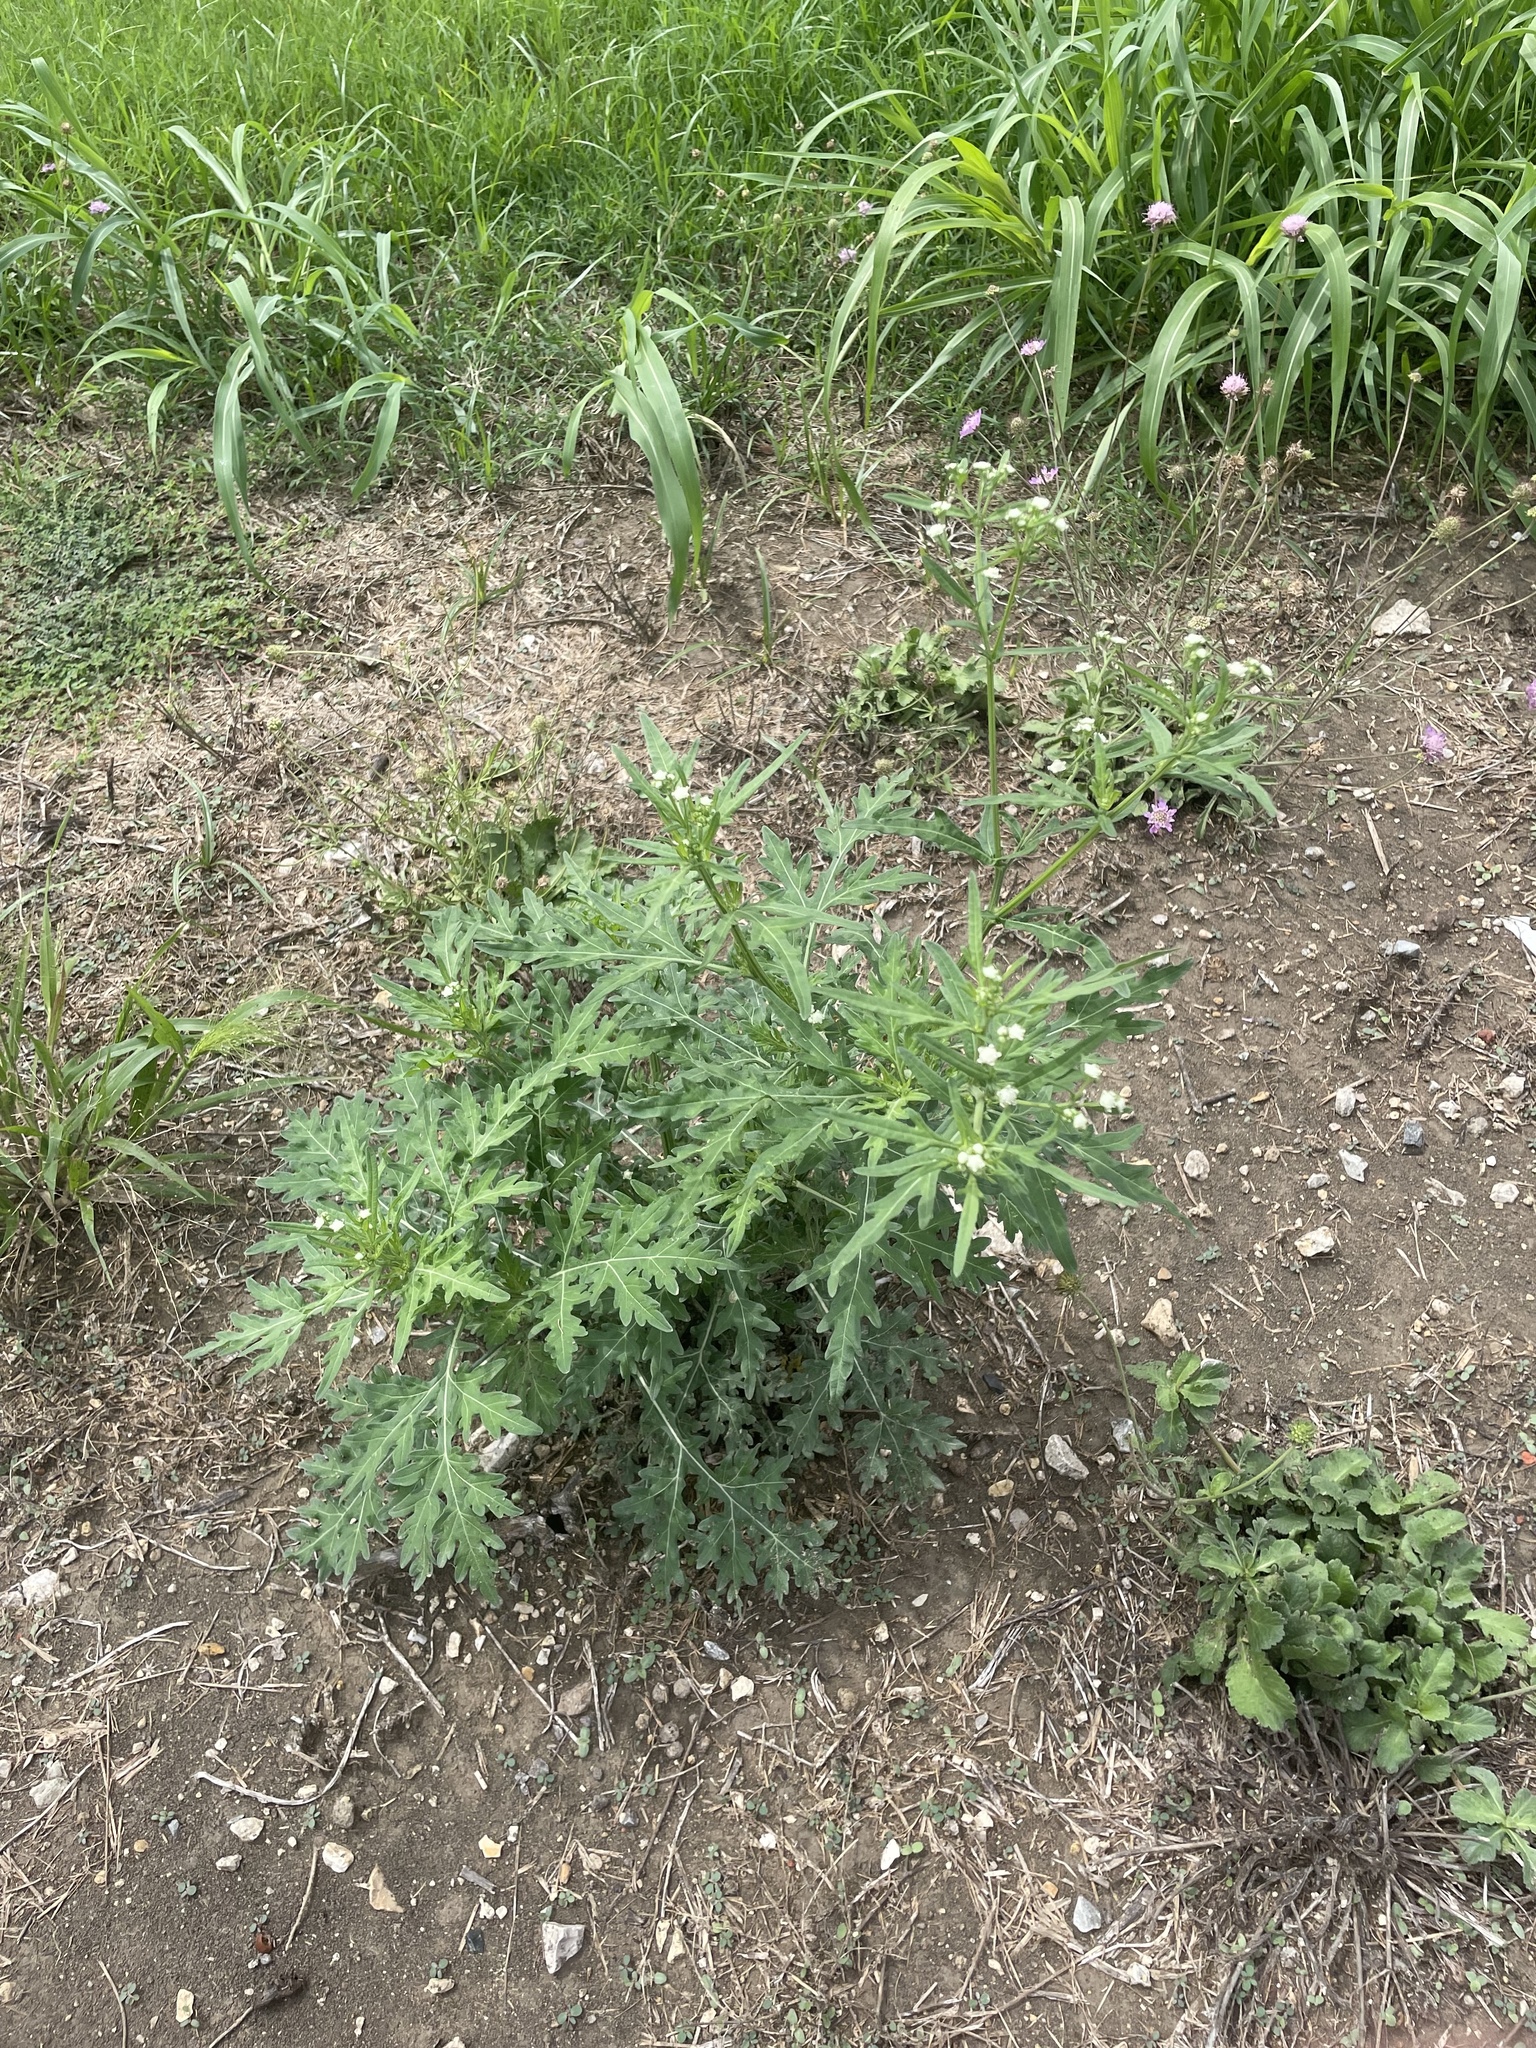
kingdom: Plantae
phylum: Tracheophyta
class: Magnoliopsida
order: Asterales
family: Asteraceae
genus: Parthenium
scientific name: Parthenium hysterophorus
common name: Santa maria feverfew
